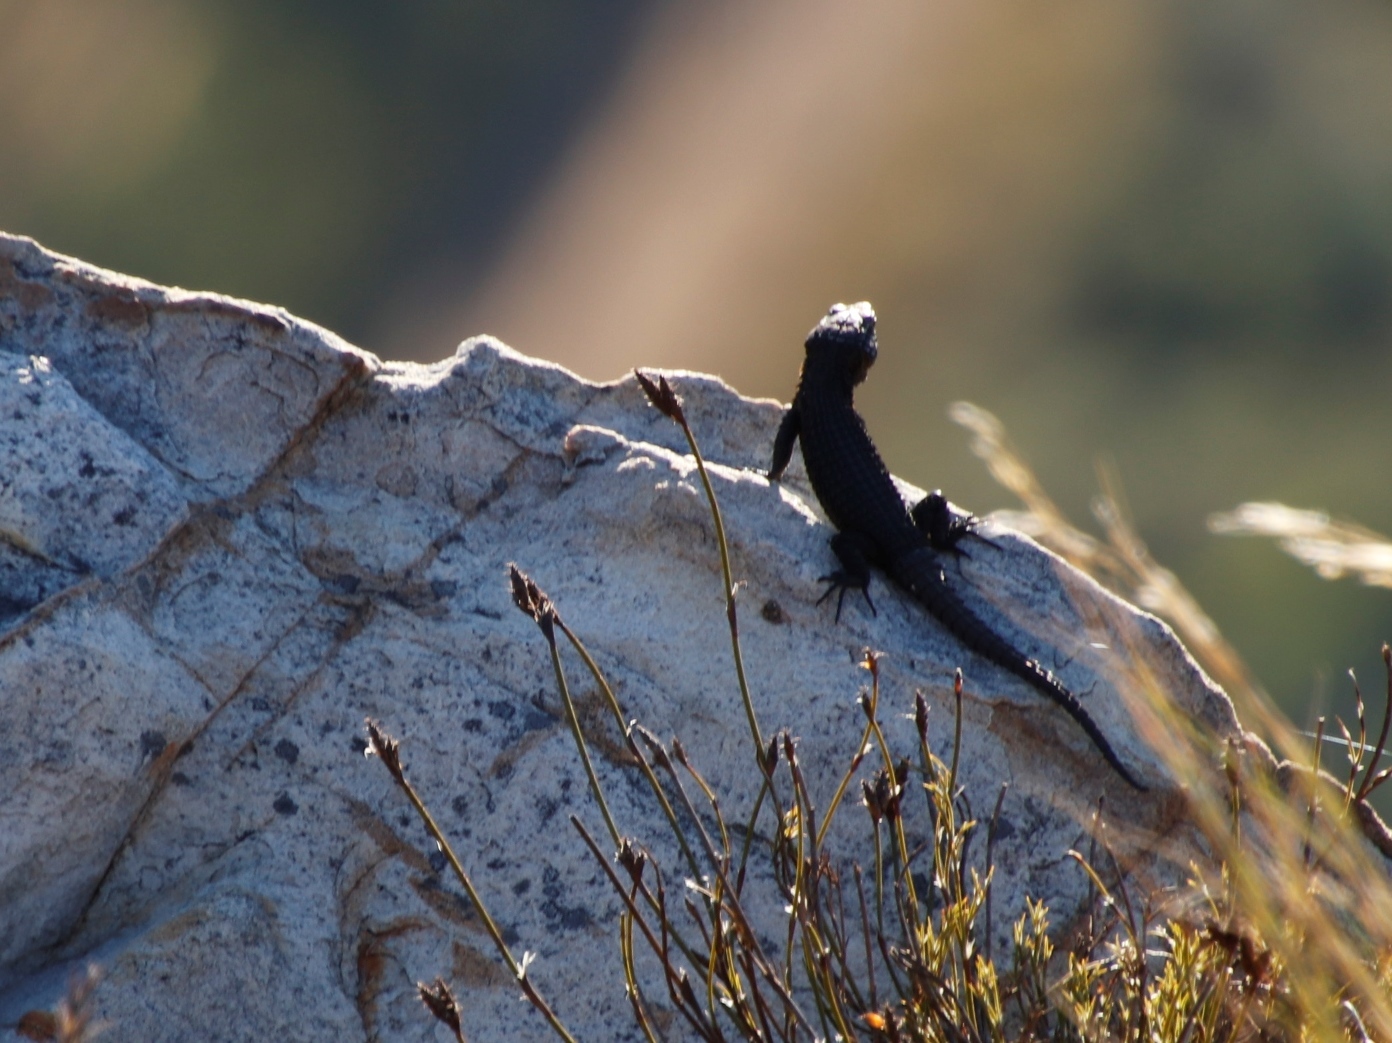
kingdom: Animalia
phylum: Chordata
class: Squamata
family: Cordylidae
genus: Cordylus
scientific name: Cordylus niger
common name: Black girdled lizard
